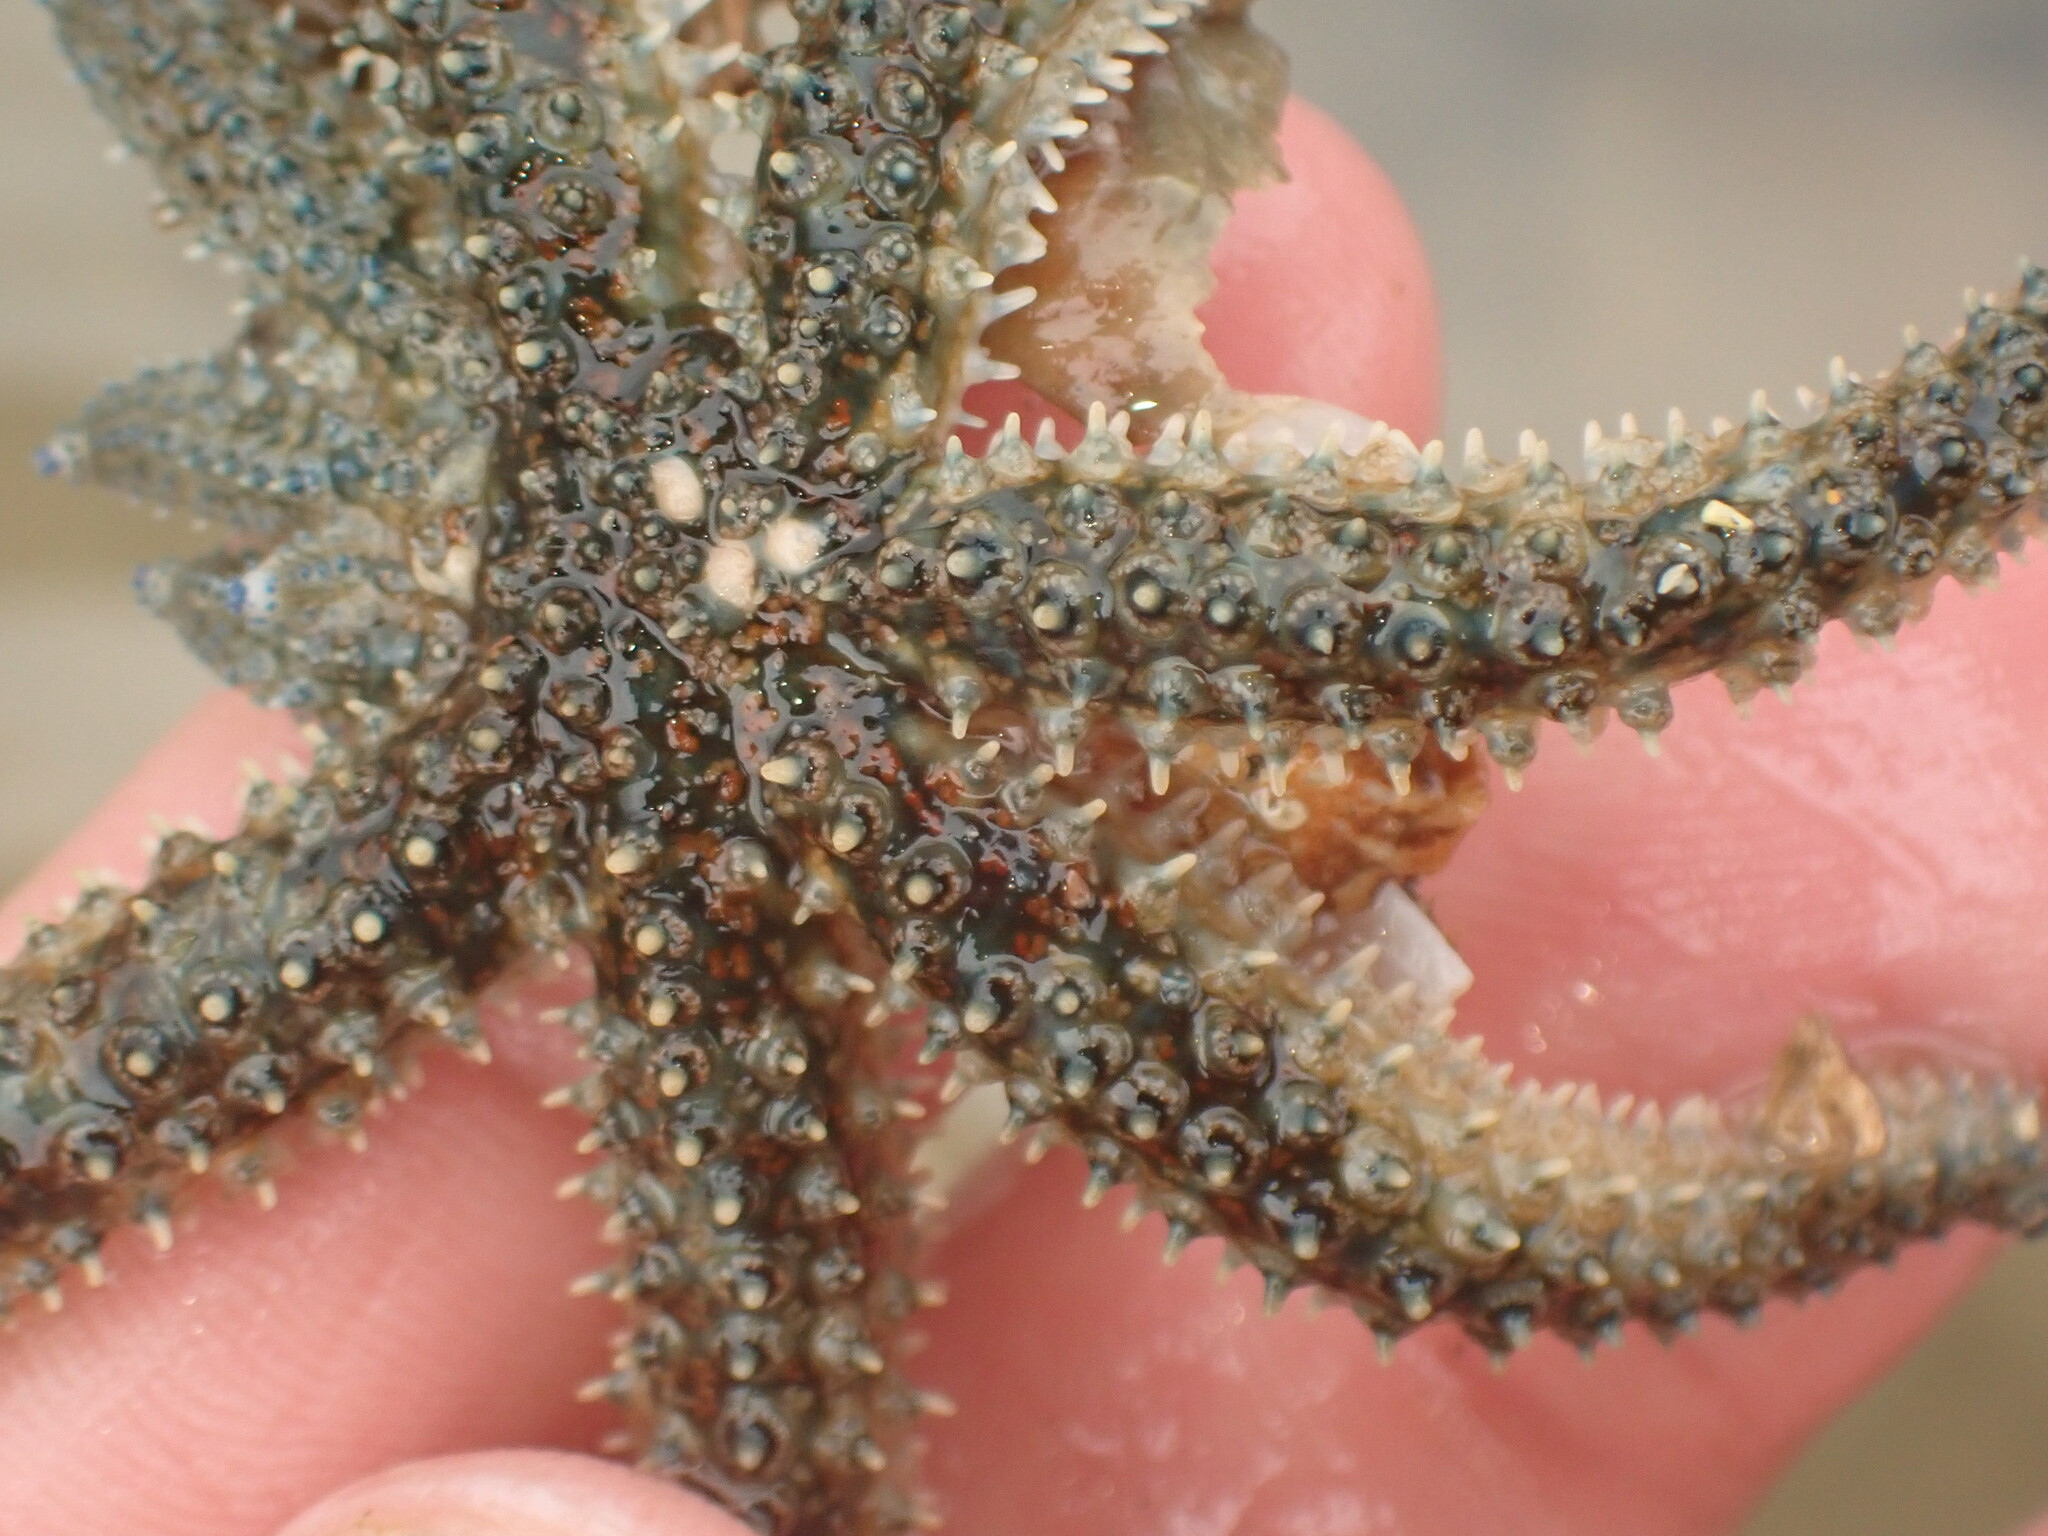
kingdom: Animalia
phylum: Echinodermata
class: Asteroidea
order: Forcipulatida
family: Asteriidae
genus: Coscinasterias
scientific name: Coscinasterias muricata
